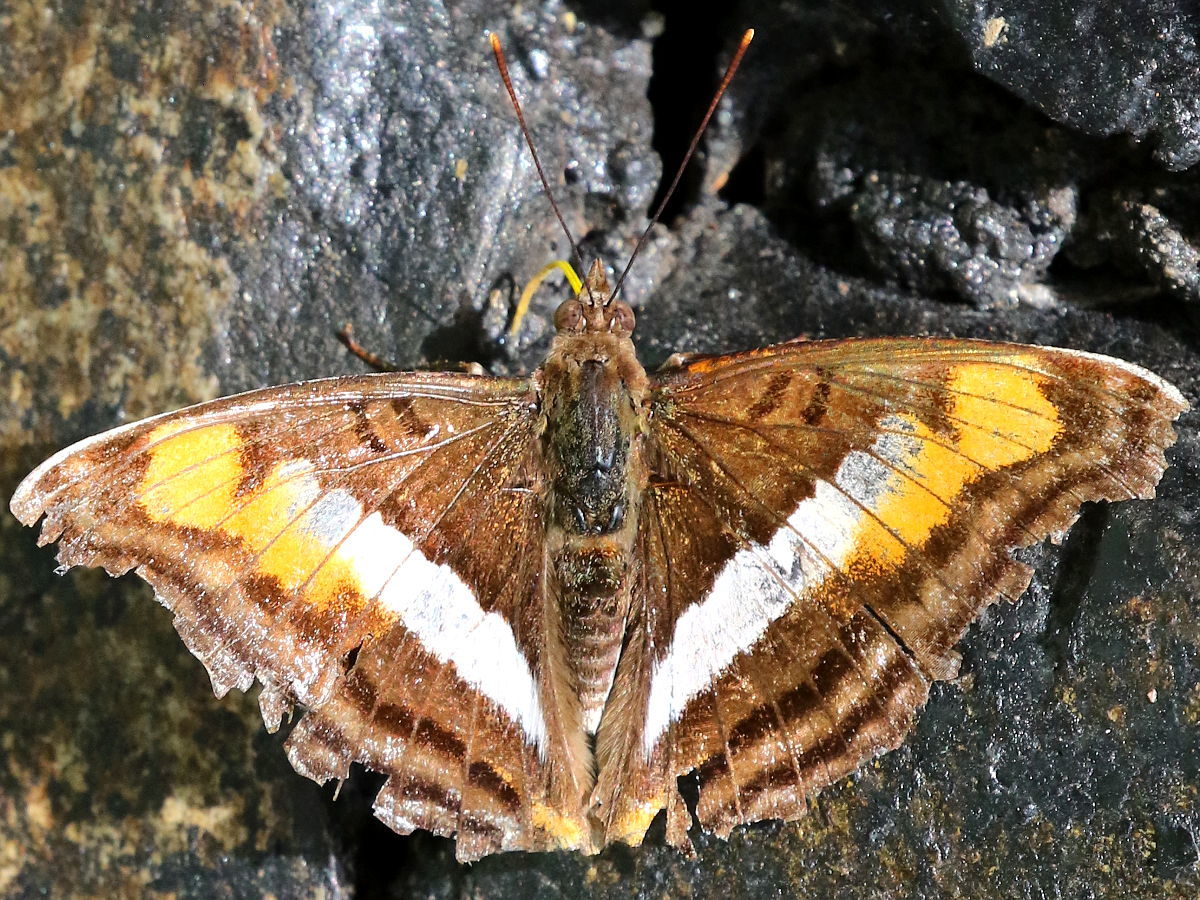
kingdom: Animalia
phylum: Arthropoda
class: Insecta
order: Lepidoptera
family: Nymphalidae
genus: Doxocopa
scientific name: Doxocopa linda
